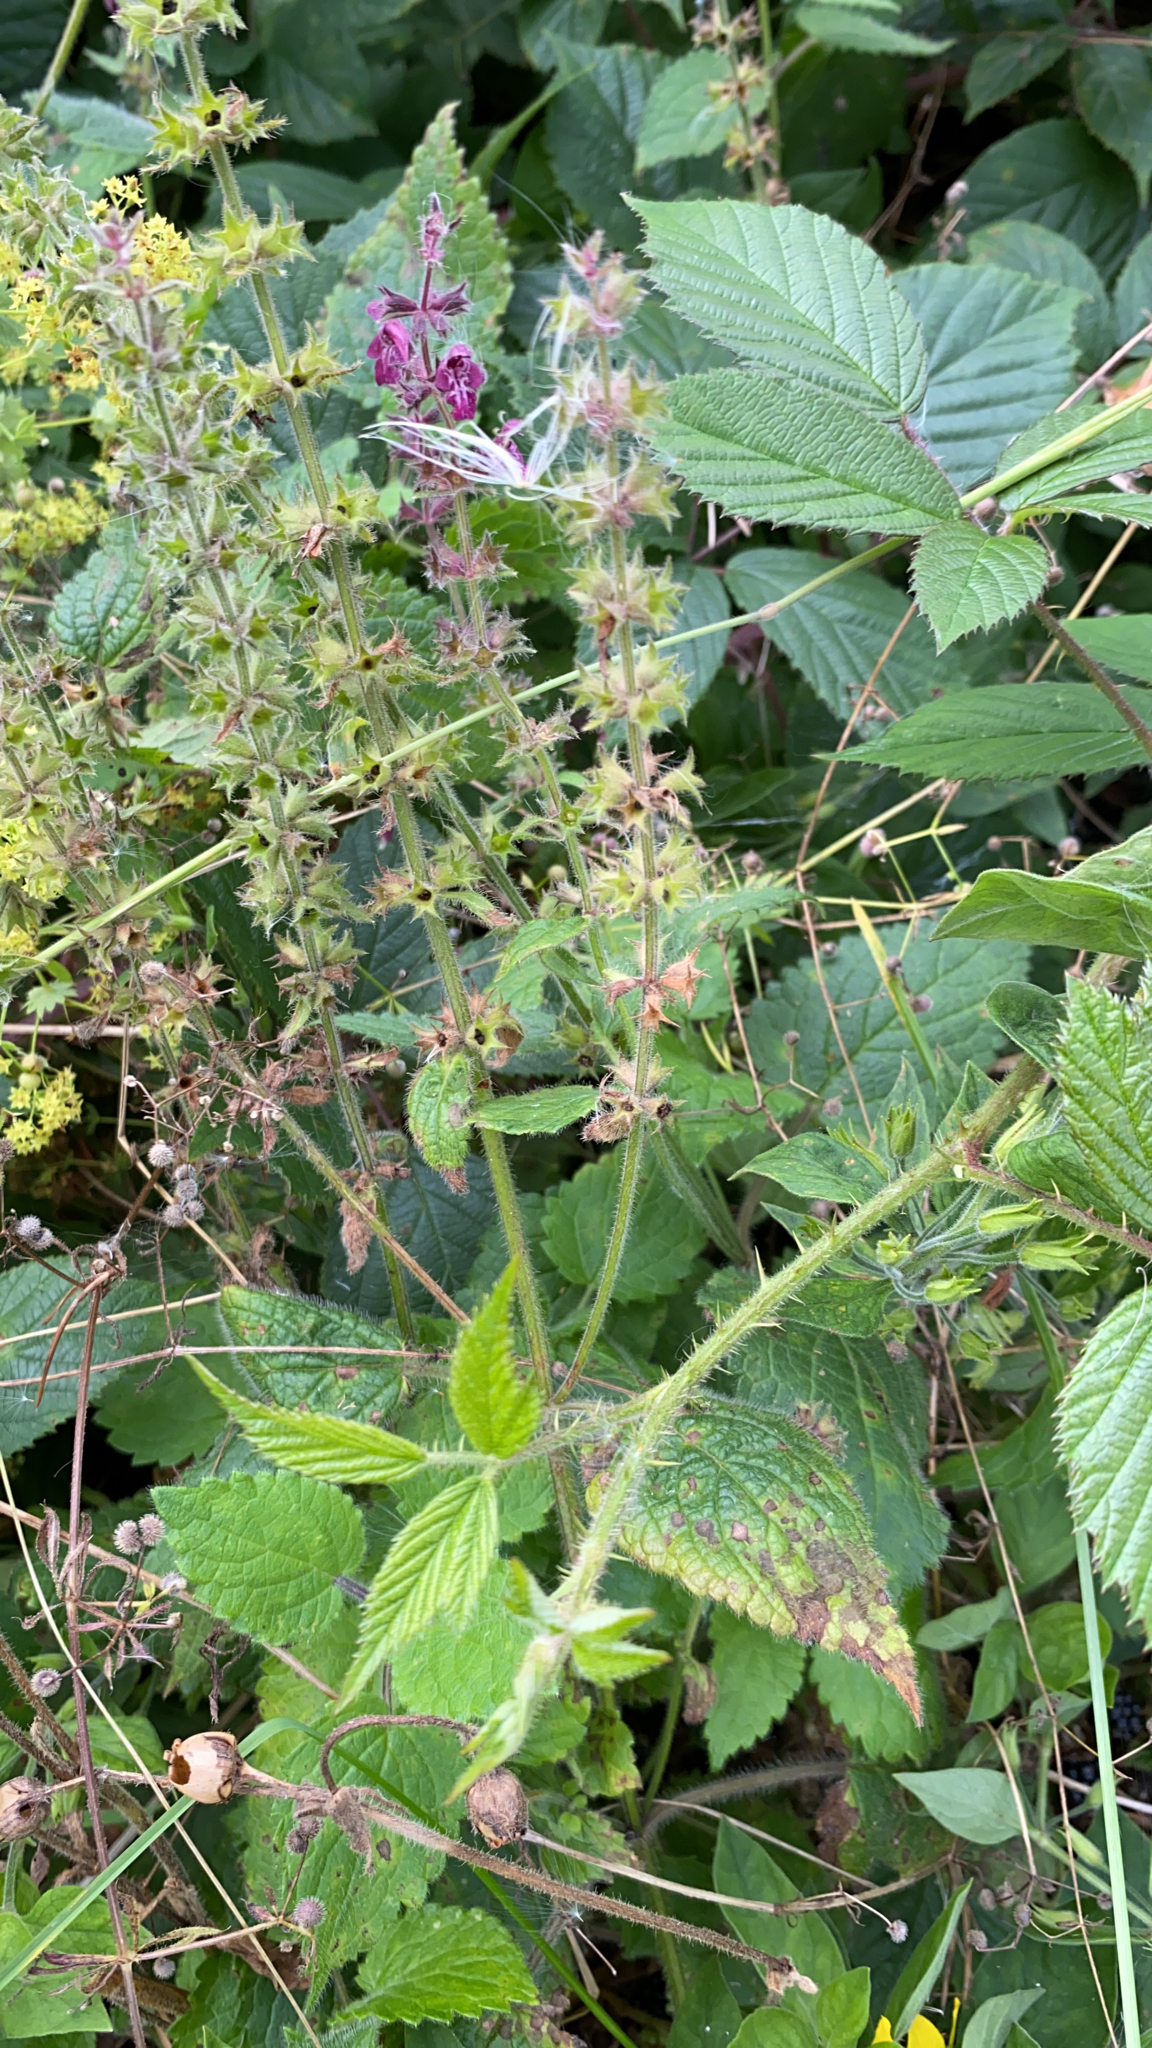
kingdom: Plantae
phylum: Tracheophyta
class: Magnoliopsida
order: Lamiales
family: Lamiaceae
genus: Stachys
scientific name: Stachys sylvatica
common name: Hedge woundwort
